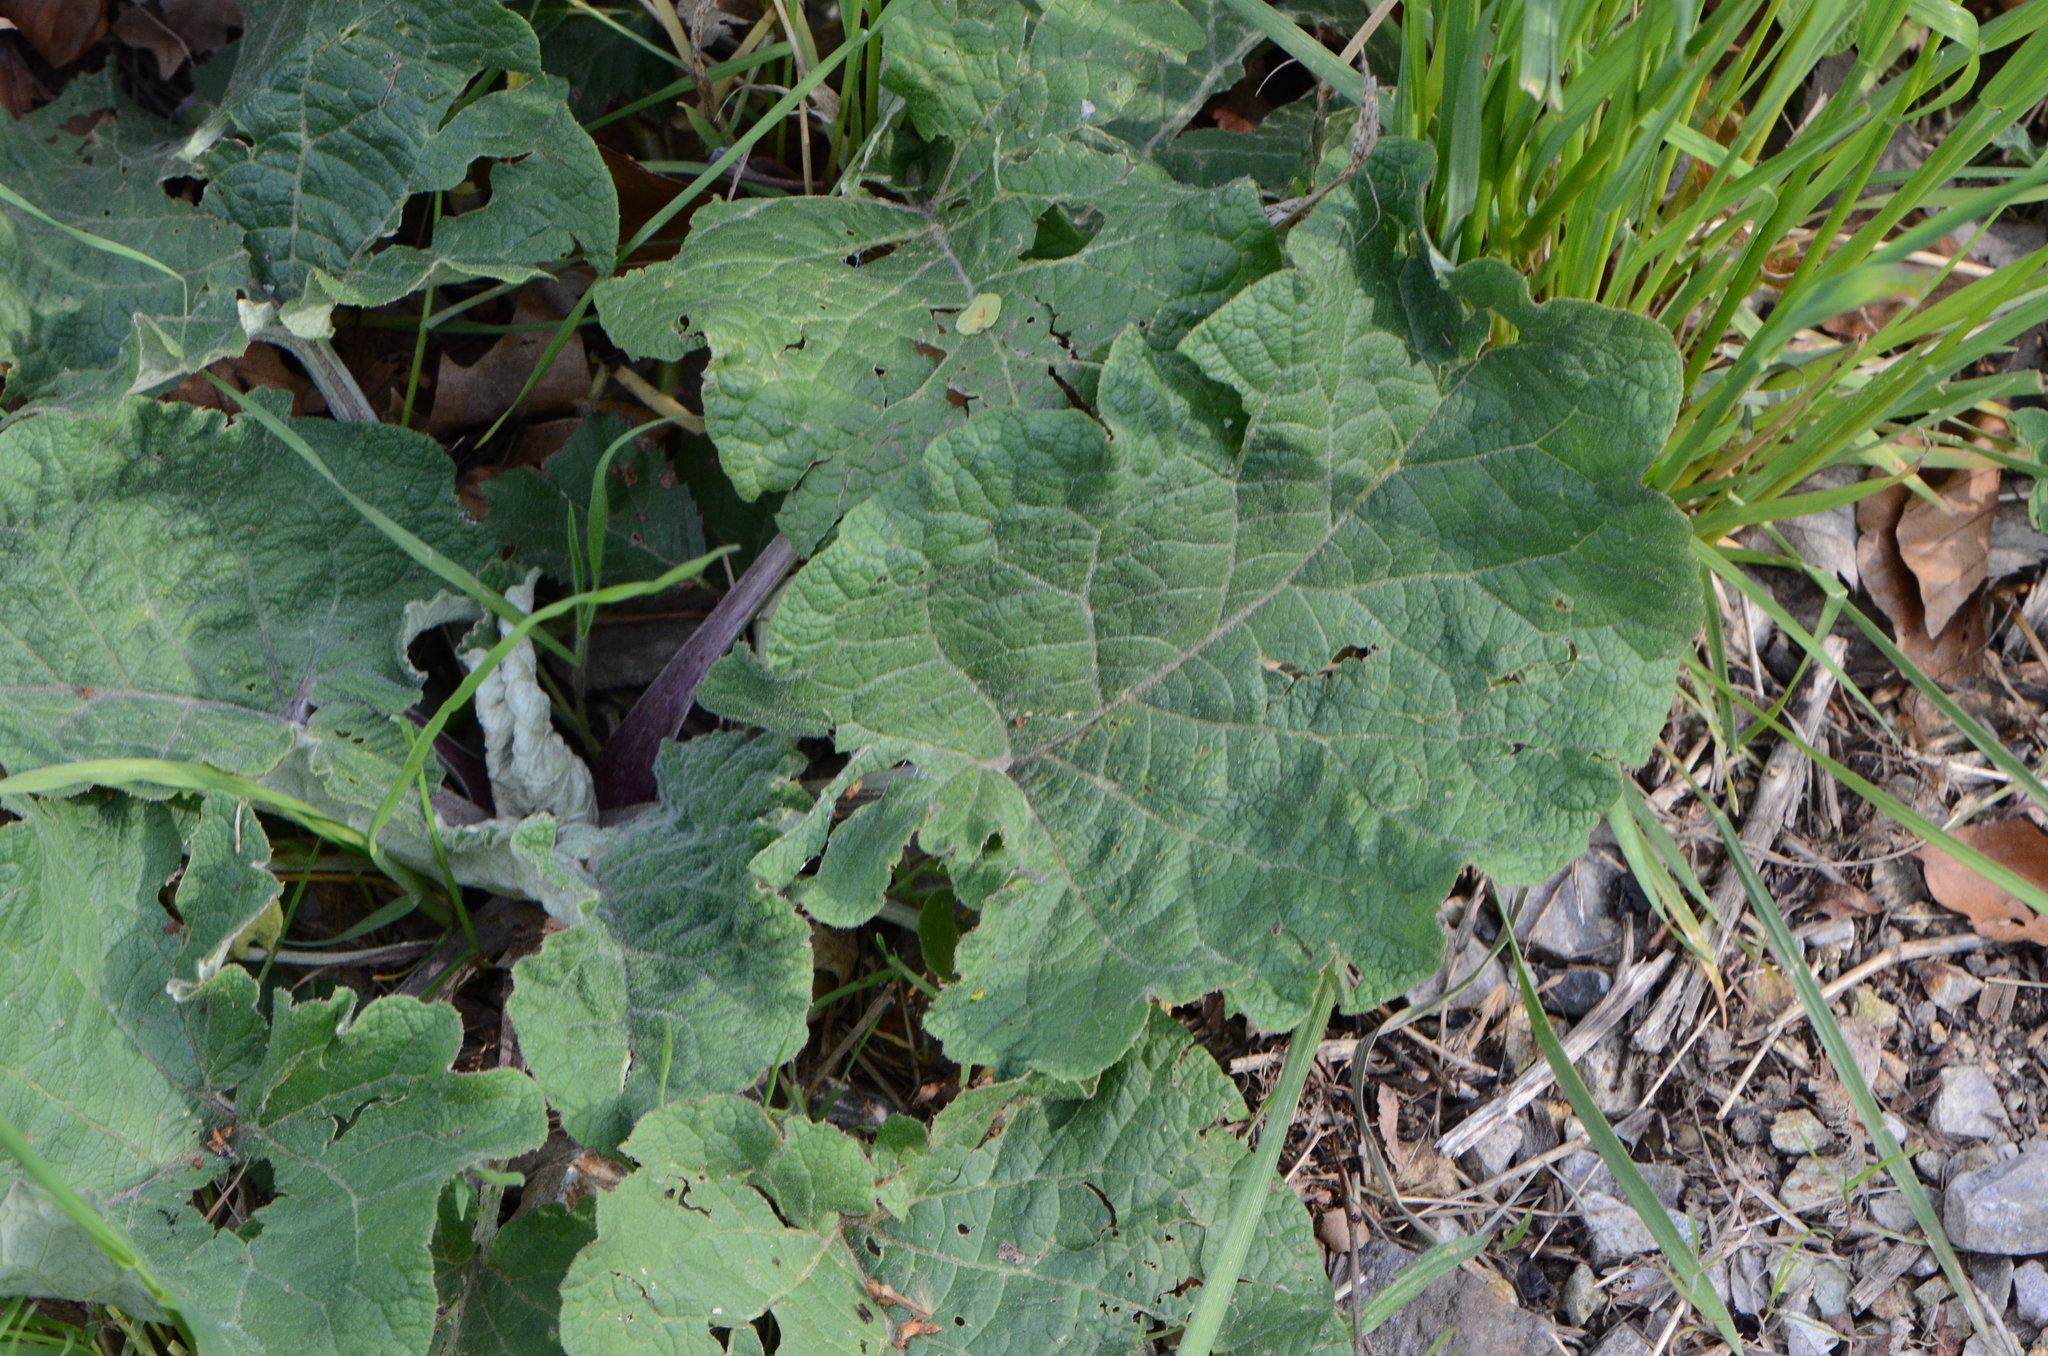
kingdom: Plantae
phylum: Tracheophyta
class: Magnoliopsida
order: Asterales
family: Asteraceae
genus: Arctium
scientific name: Arctium
